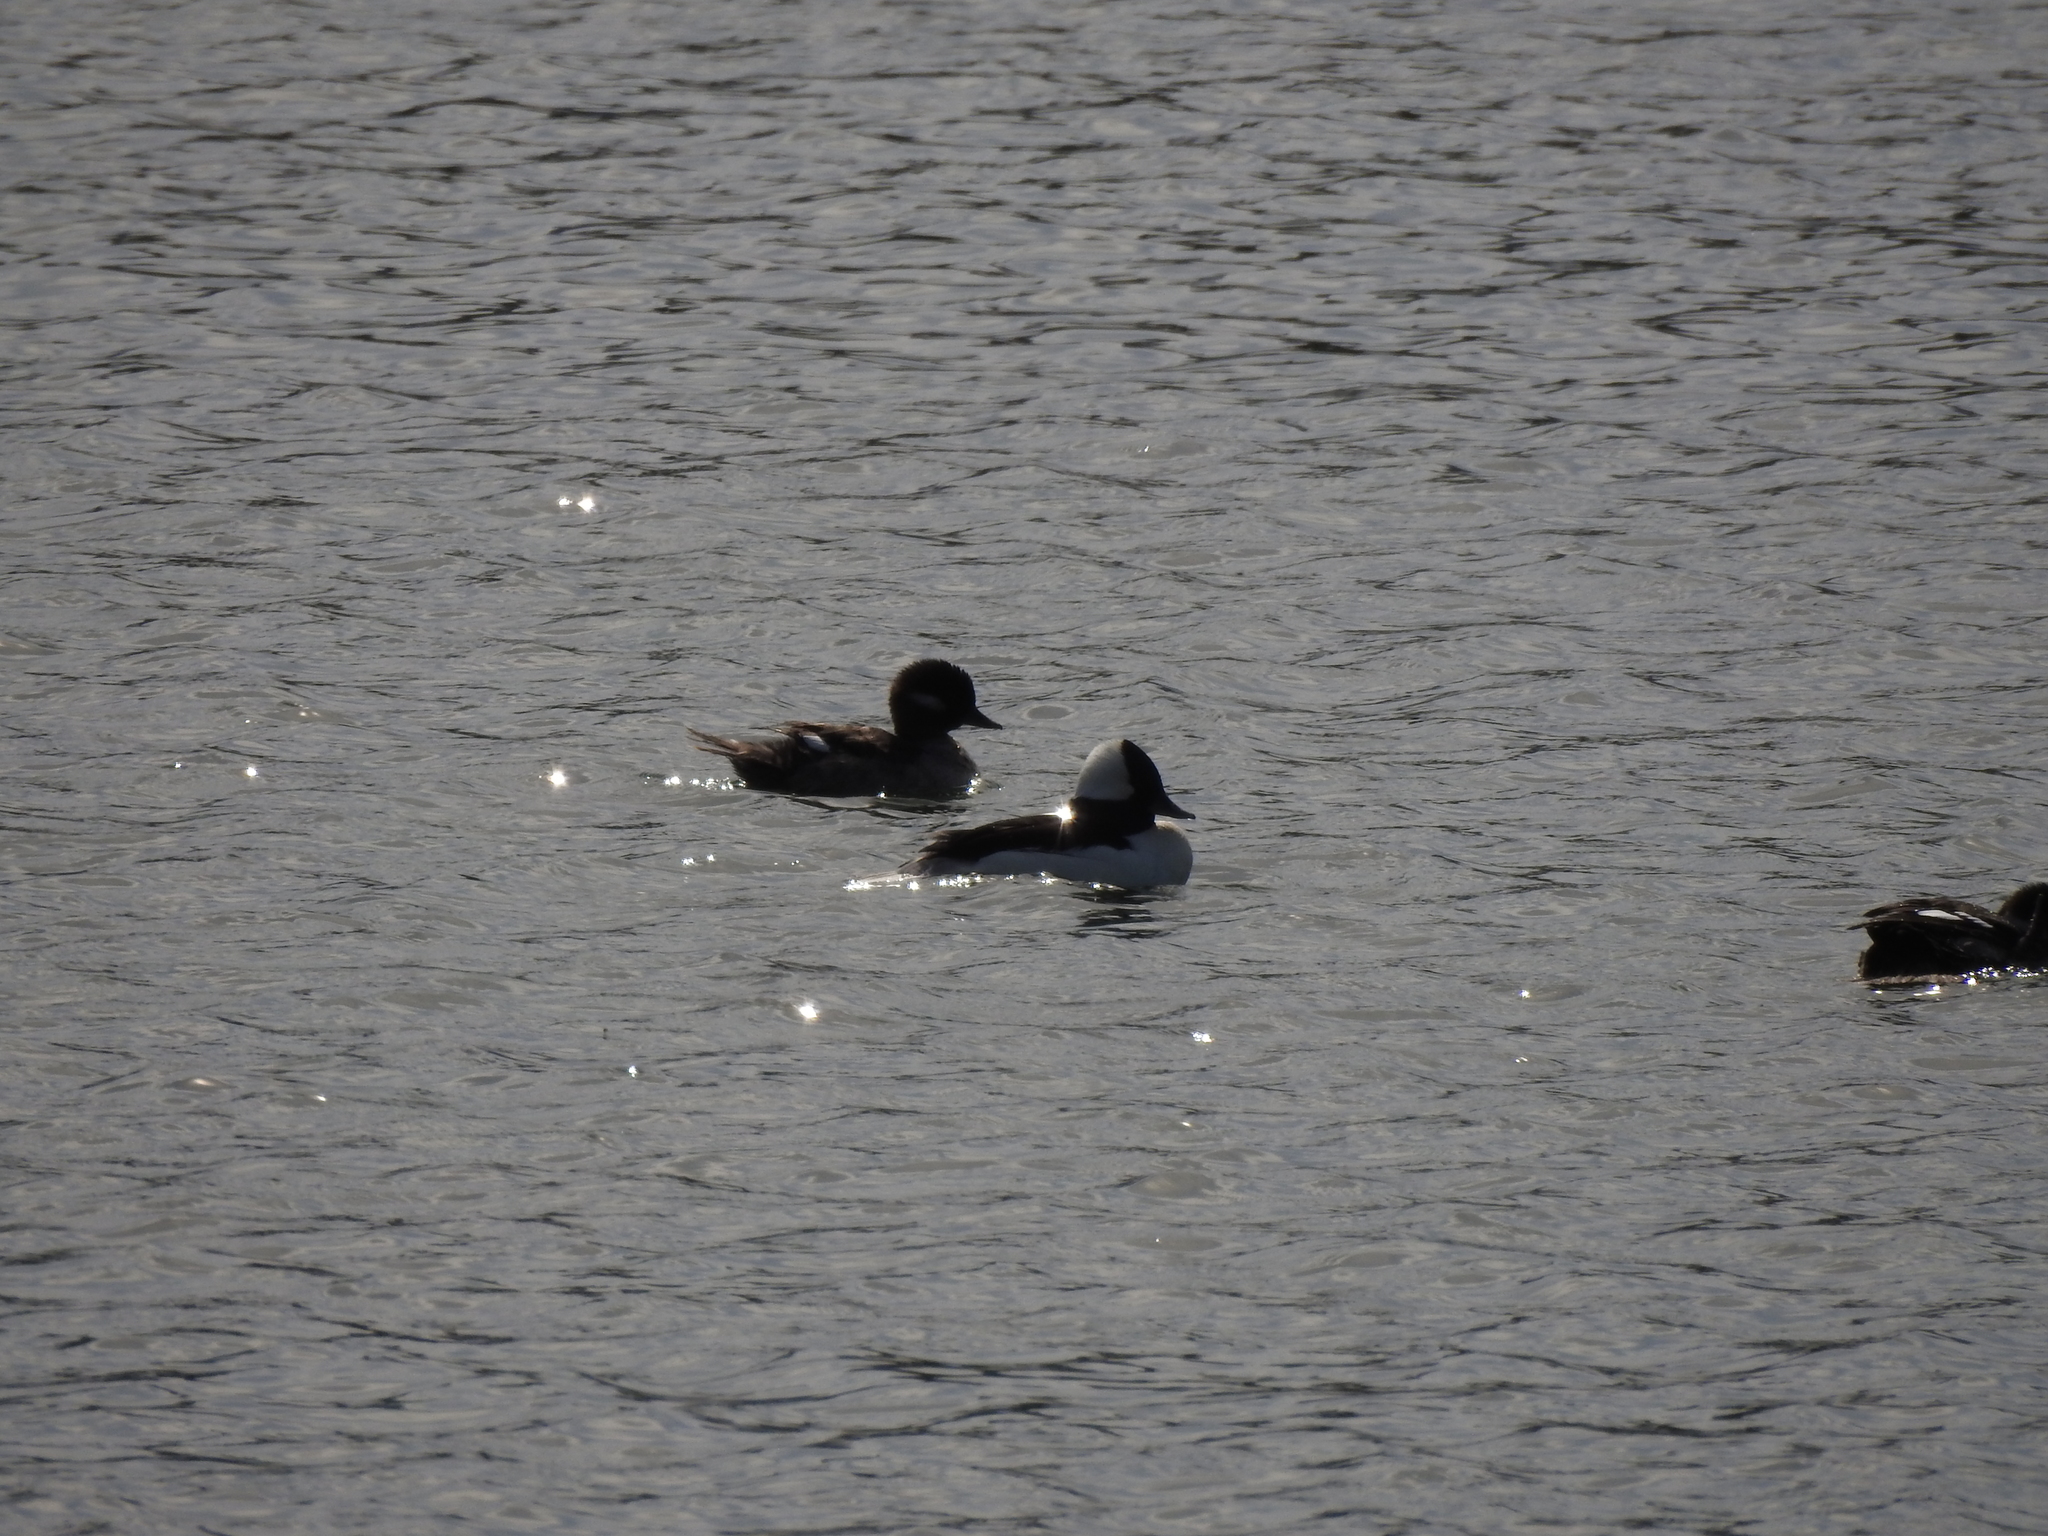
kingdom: Animalia
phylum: Chordata
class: Aves
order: Anseriformes
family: Anatidae
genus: Bucephala
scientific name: Bucephala albeola
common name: Bufflehead
